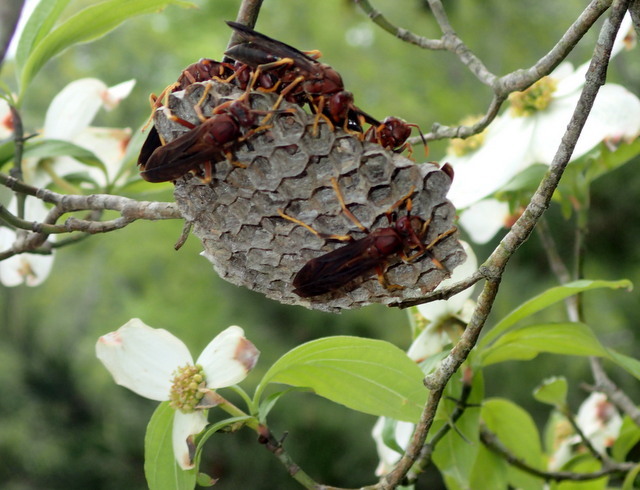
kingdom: Animalia
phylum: Arthropoda
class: Insecta
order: Hymenoptera
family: Eumenidae
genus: Polistes
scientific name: Polistes annularis
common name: Ringed paper wasp
